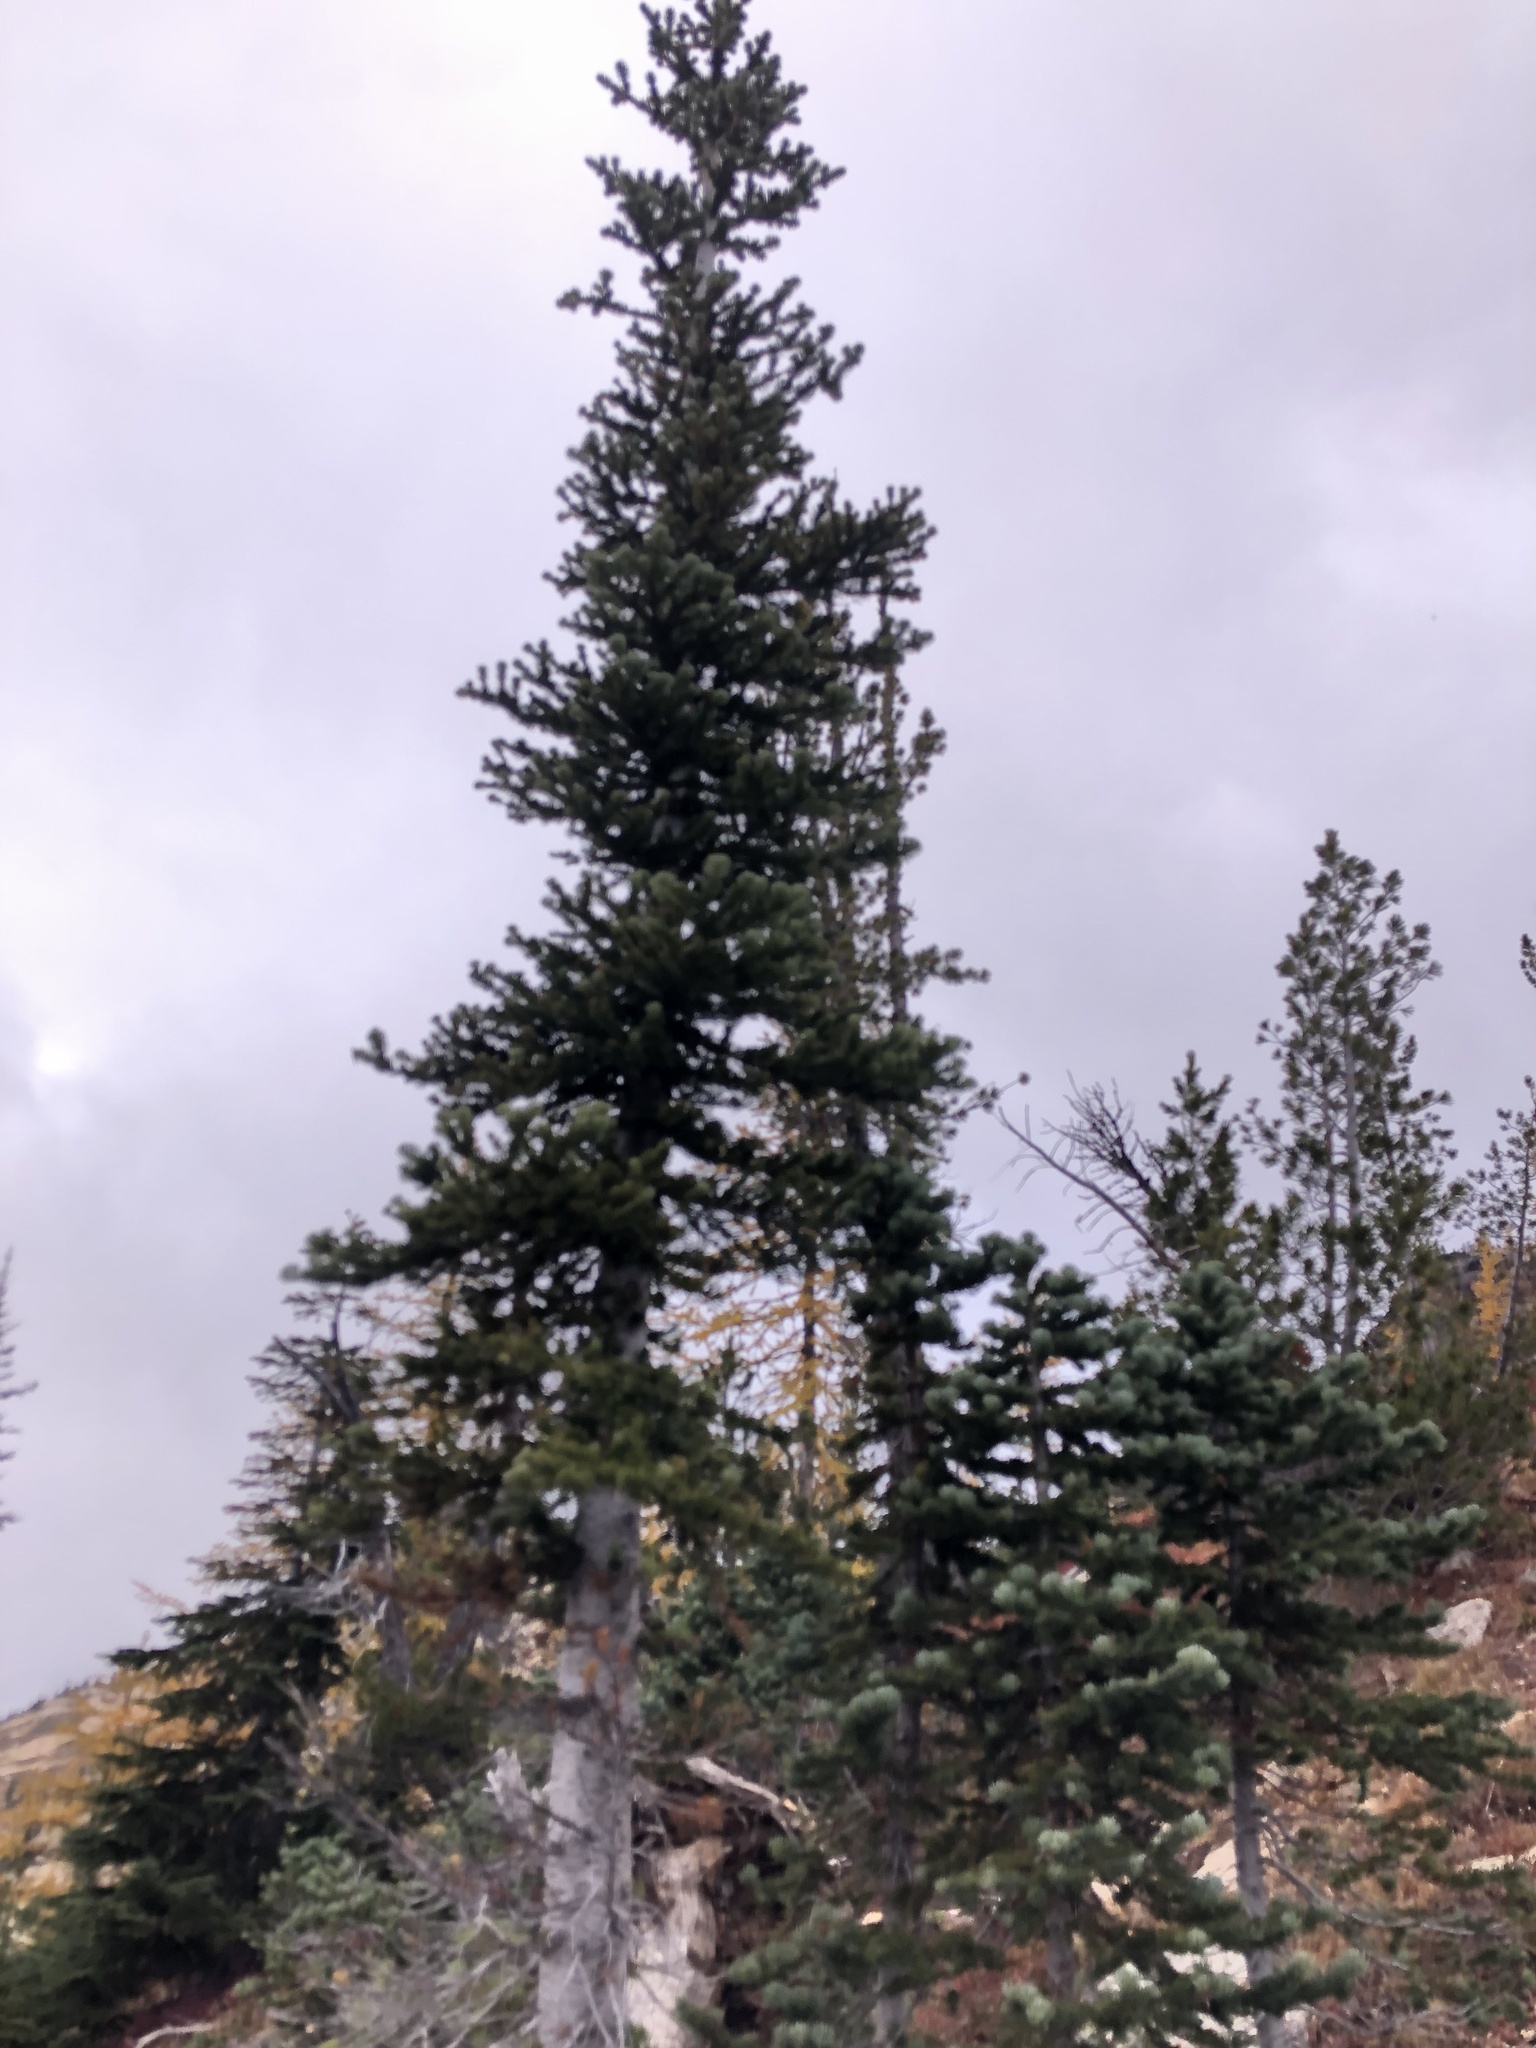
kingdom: Plantae
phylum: Tracheophyta
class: Pinopsida
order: Pinales
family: Pinaceae
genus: Abies
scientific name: Abies lasiocarpa
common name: Subalpine fir
